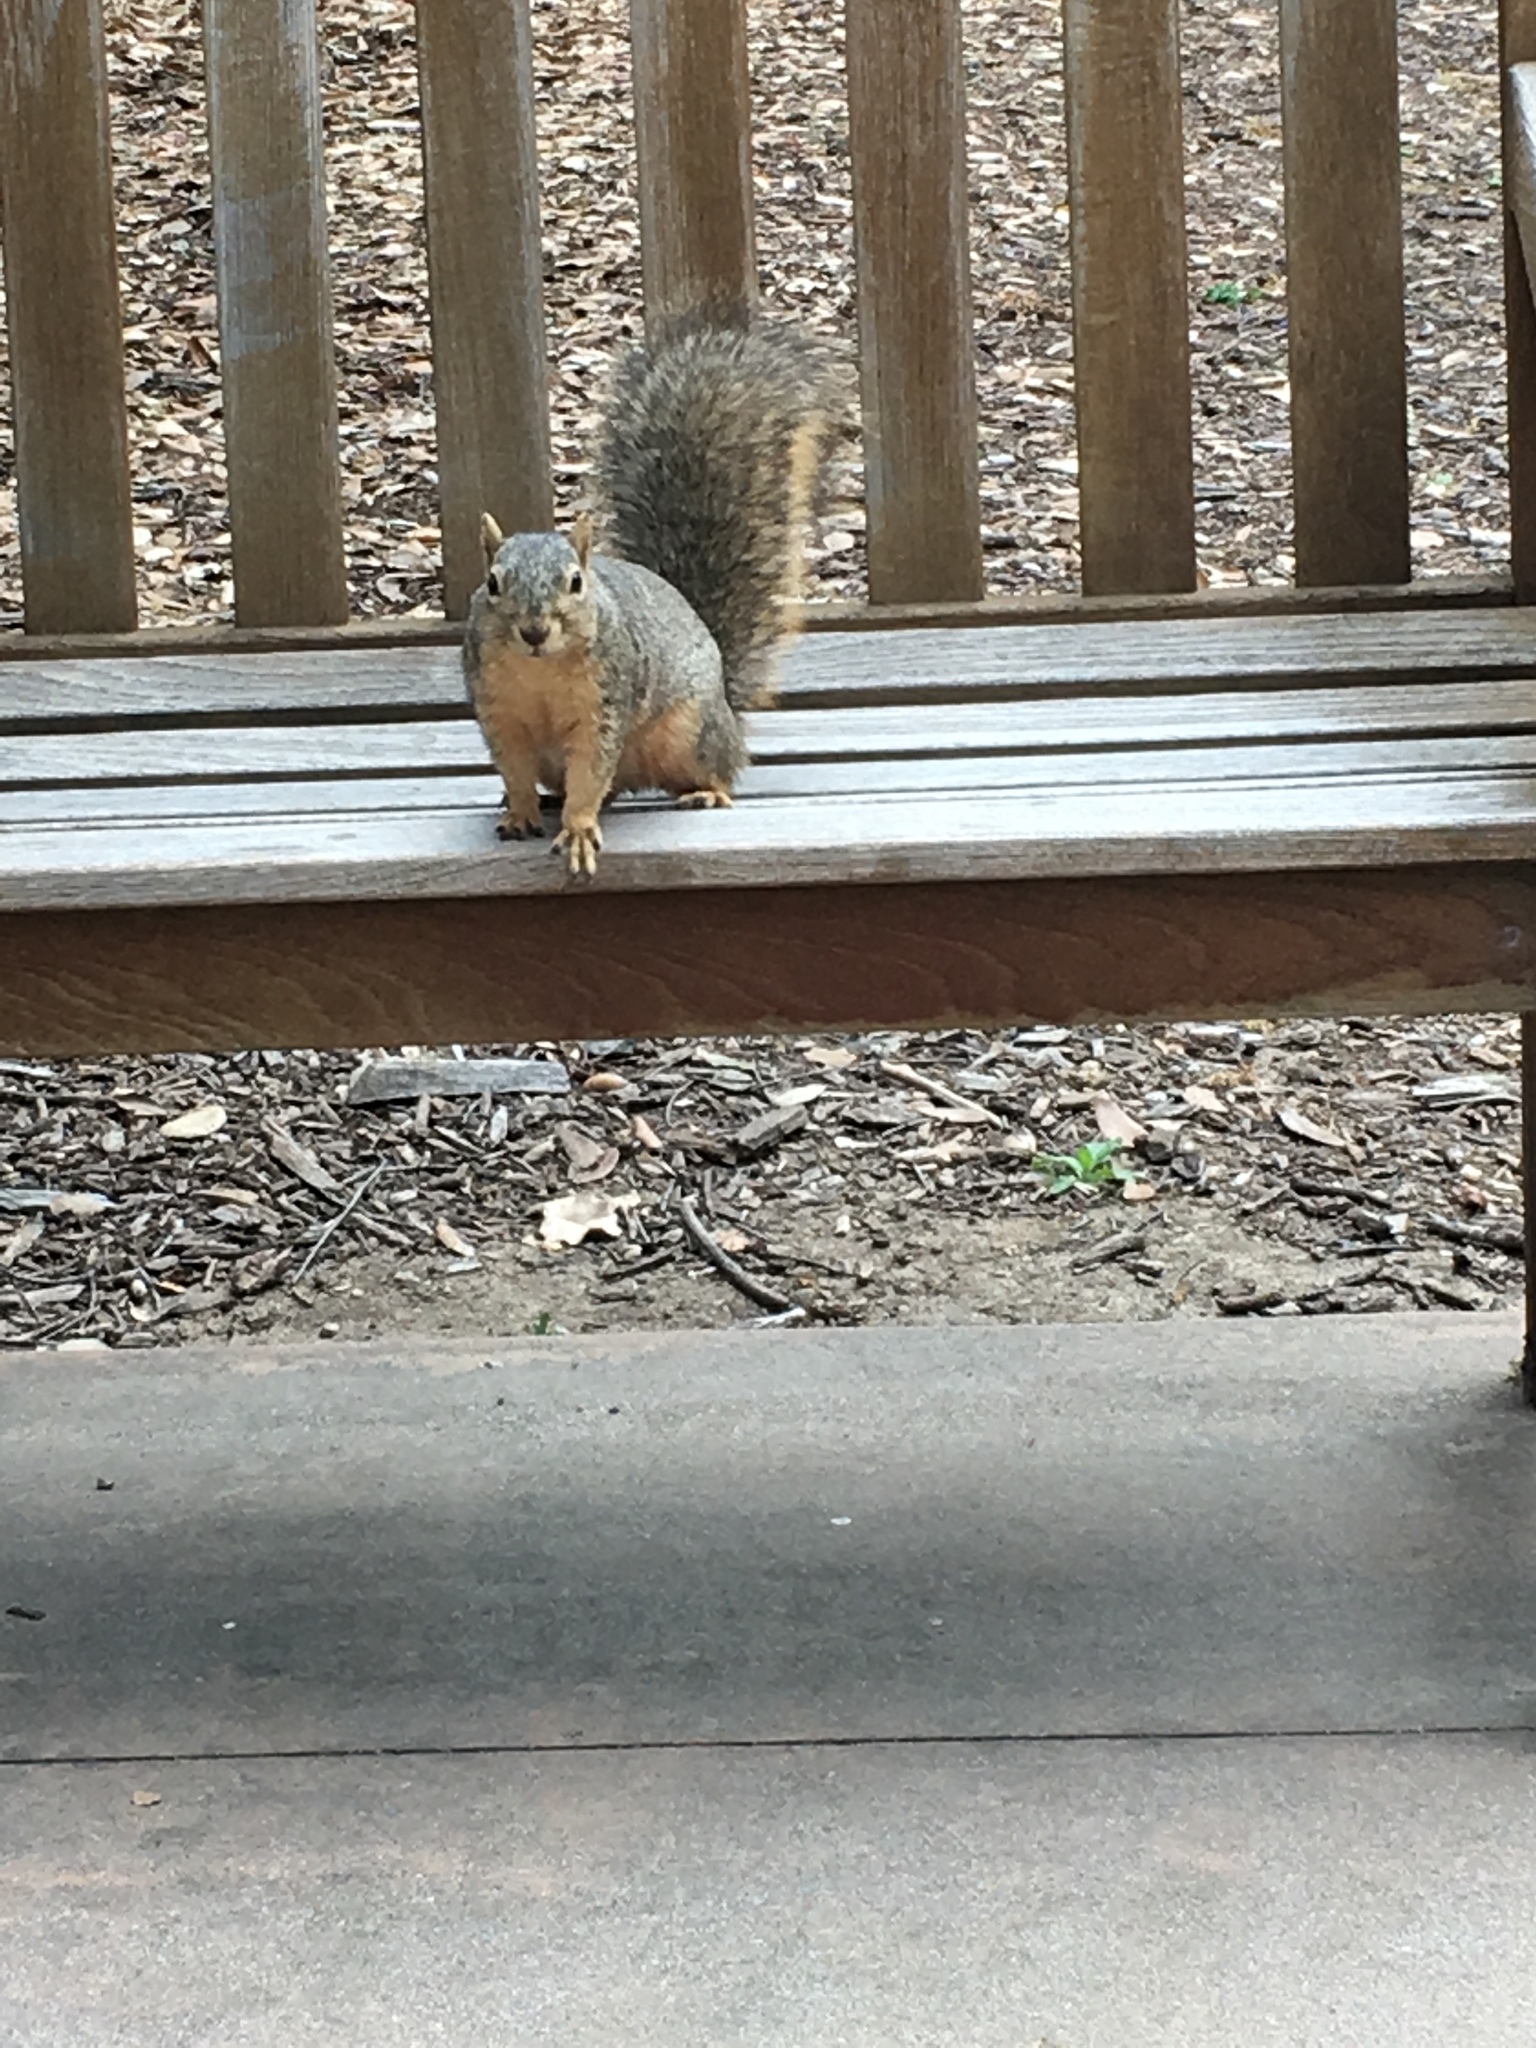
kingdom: Animalia
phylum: Chordata
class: Mammalia
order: Rodentia
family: Sciuridae
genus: Sciurus
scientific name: Sciurus niger
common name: Fox squirrel
